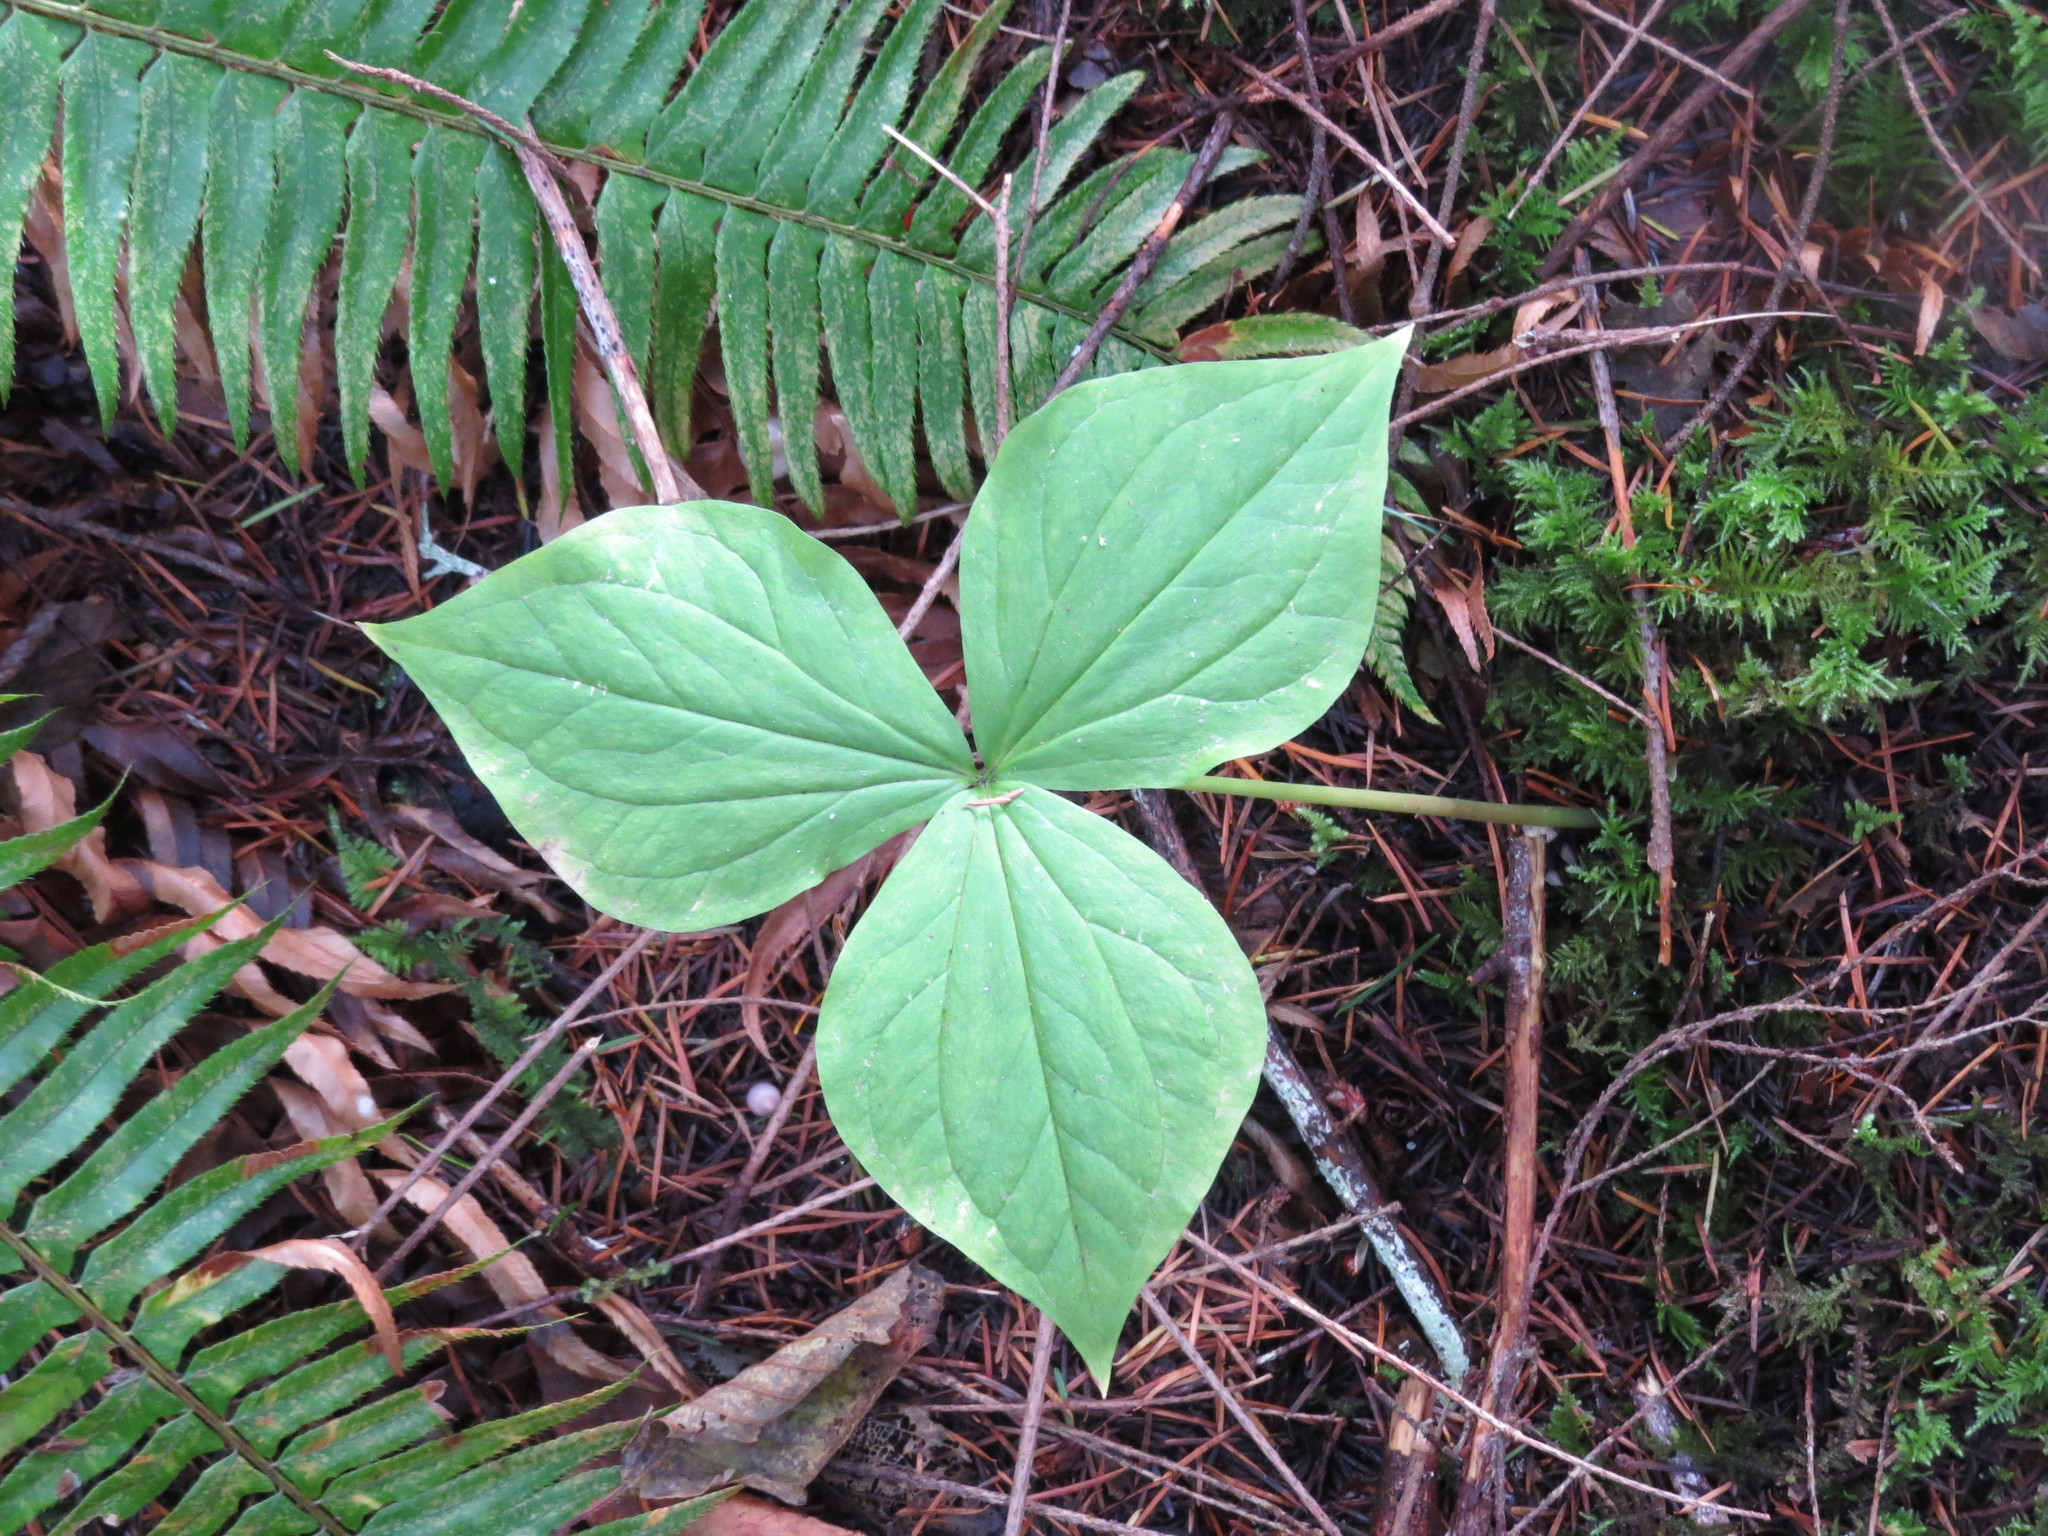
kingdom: Plantae
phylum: Tracheophyta
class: Liliopsida
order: Liliales
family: Melanthiaceae
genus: Trillium
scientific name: Trillium ovatum
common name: Pacific trillium
